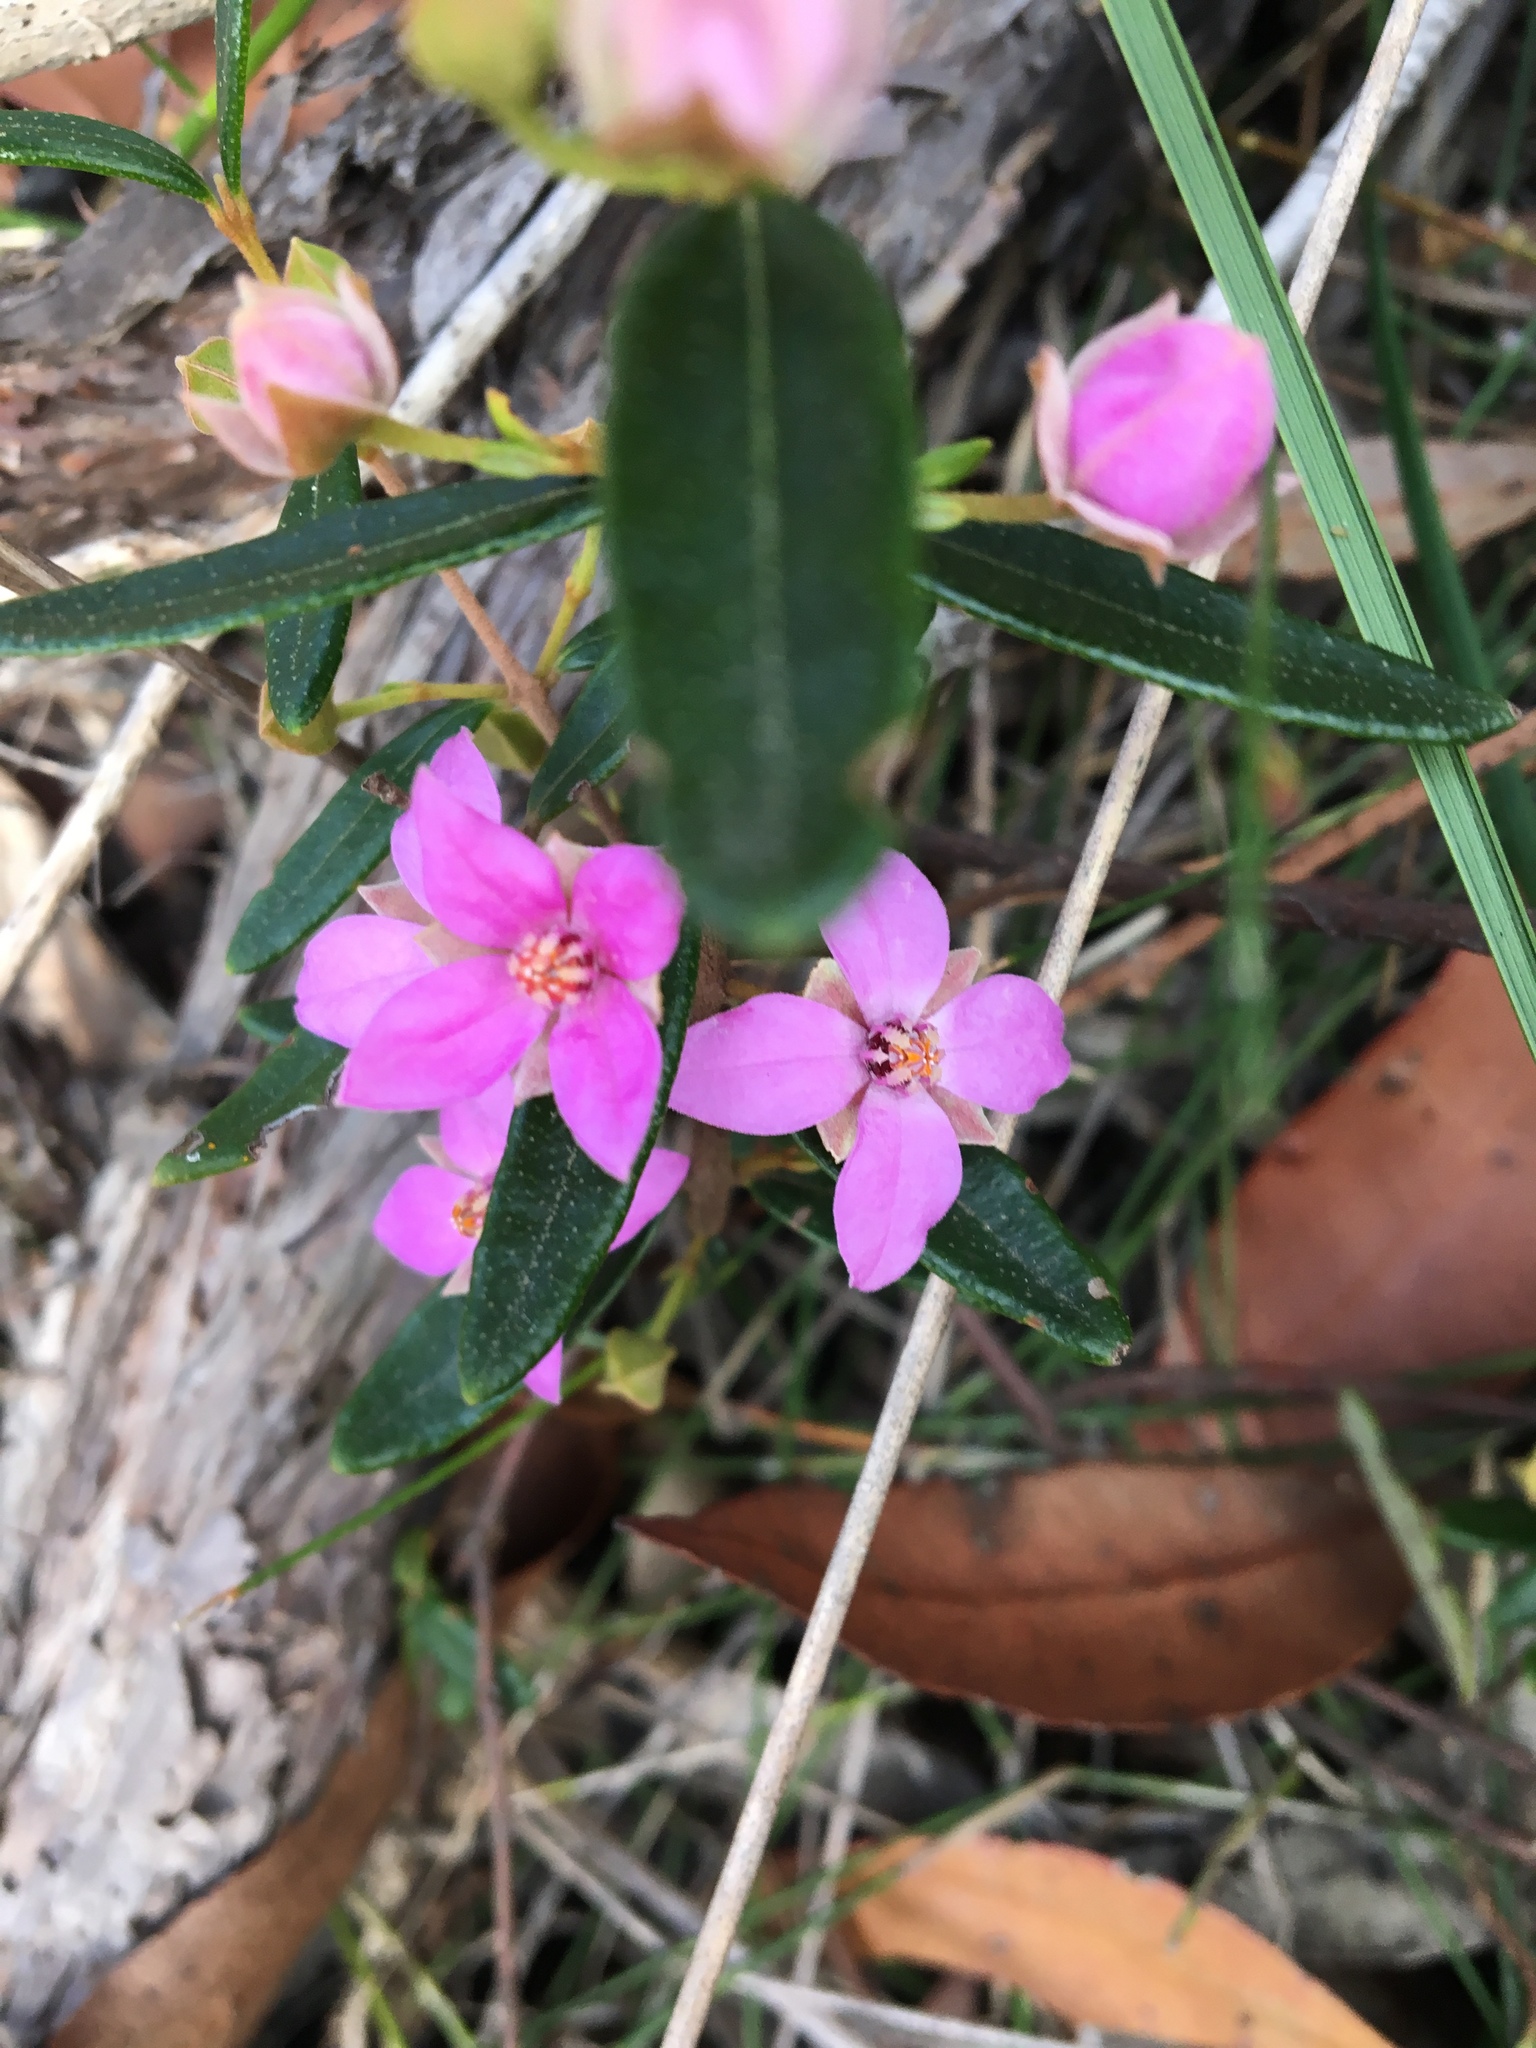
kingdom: Plantae
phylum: Tracheophyta
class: Magnoliopsida
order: Sapindales
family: Rutaceae
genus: Boronia
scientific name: Boronia ledifolia
